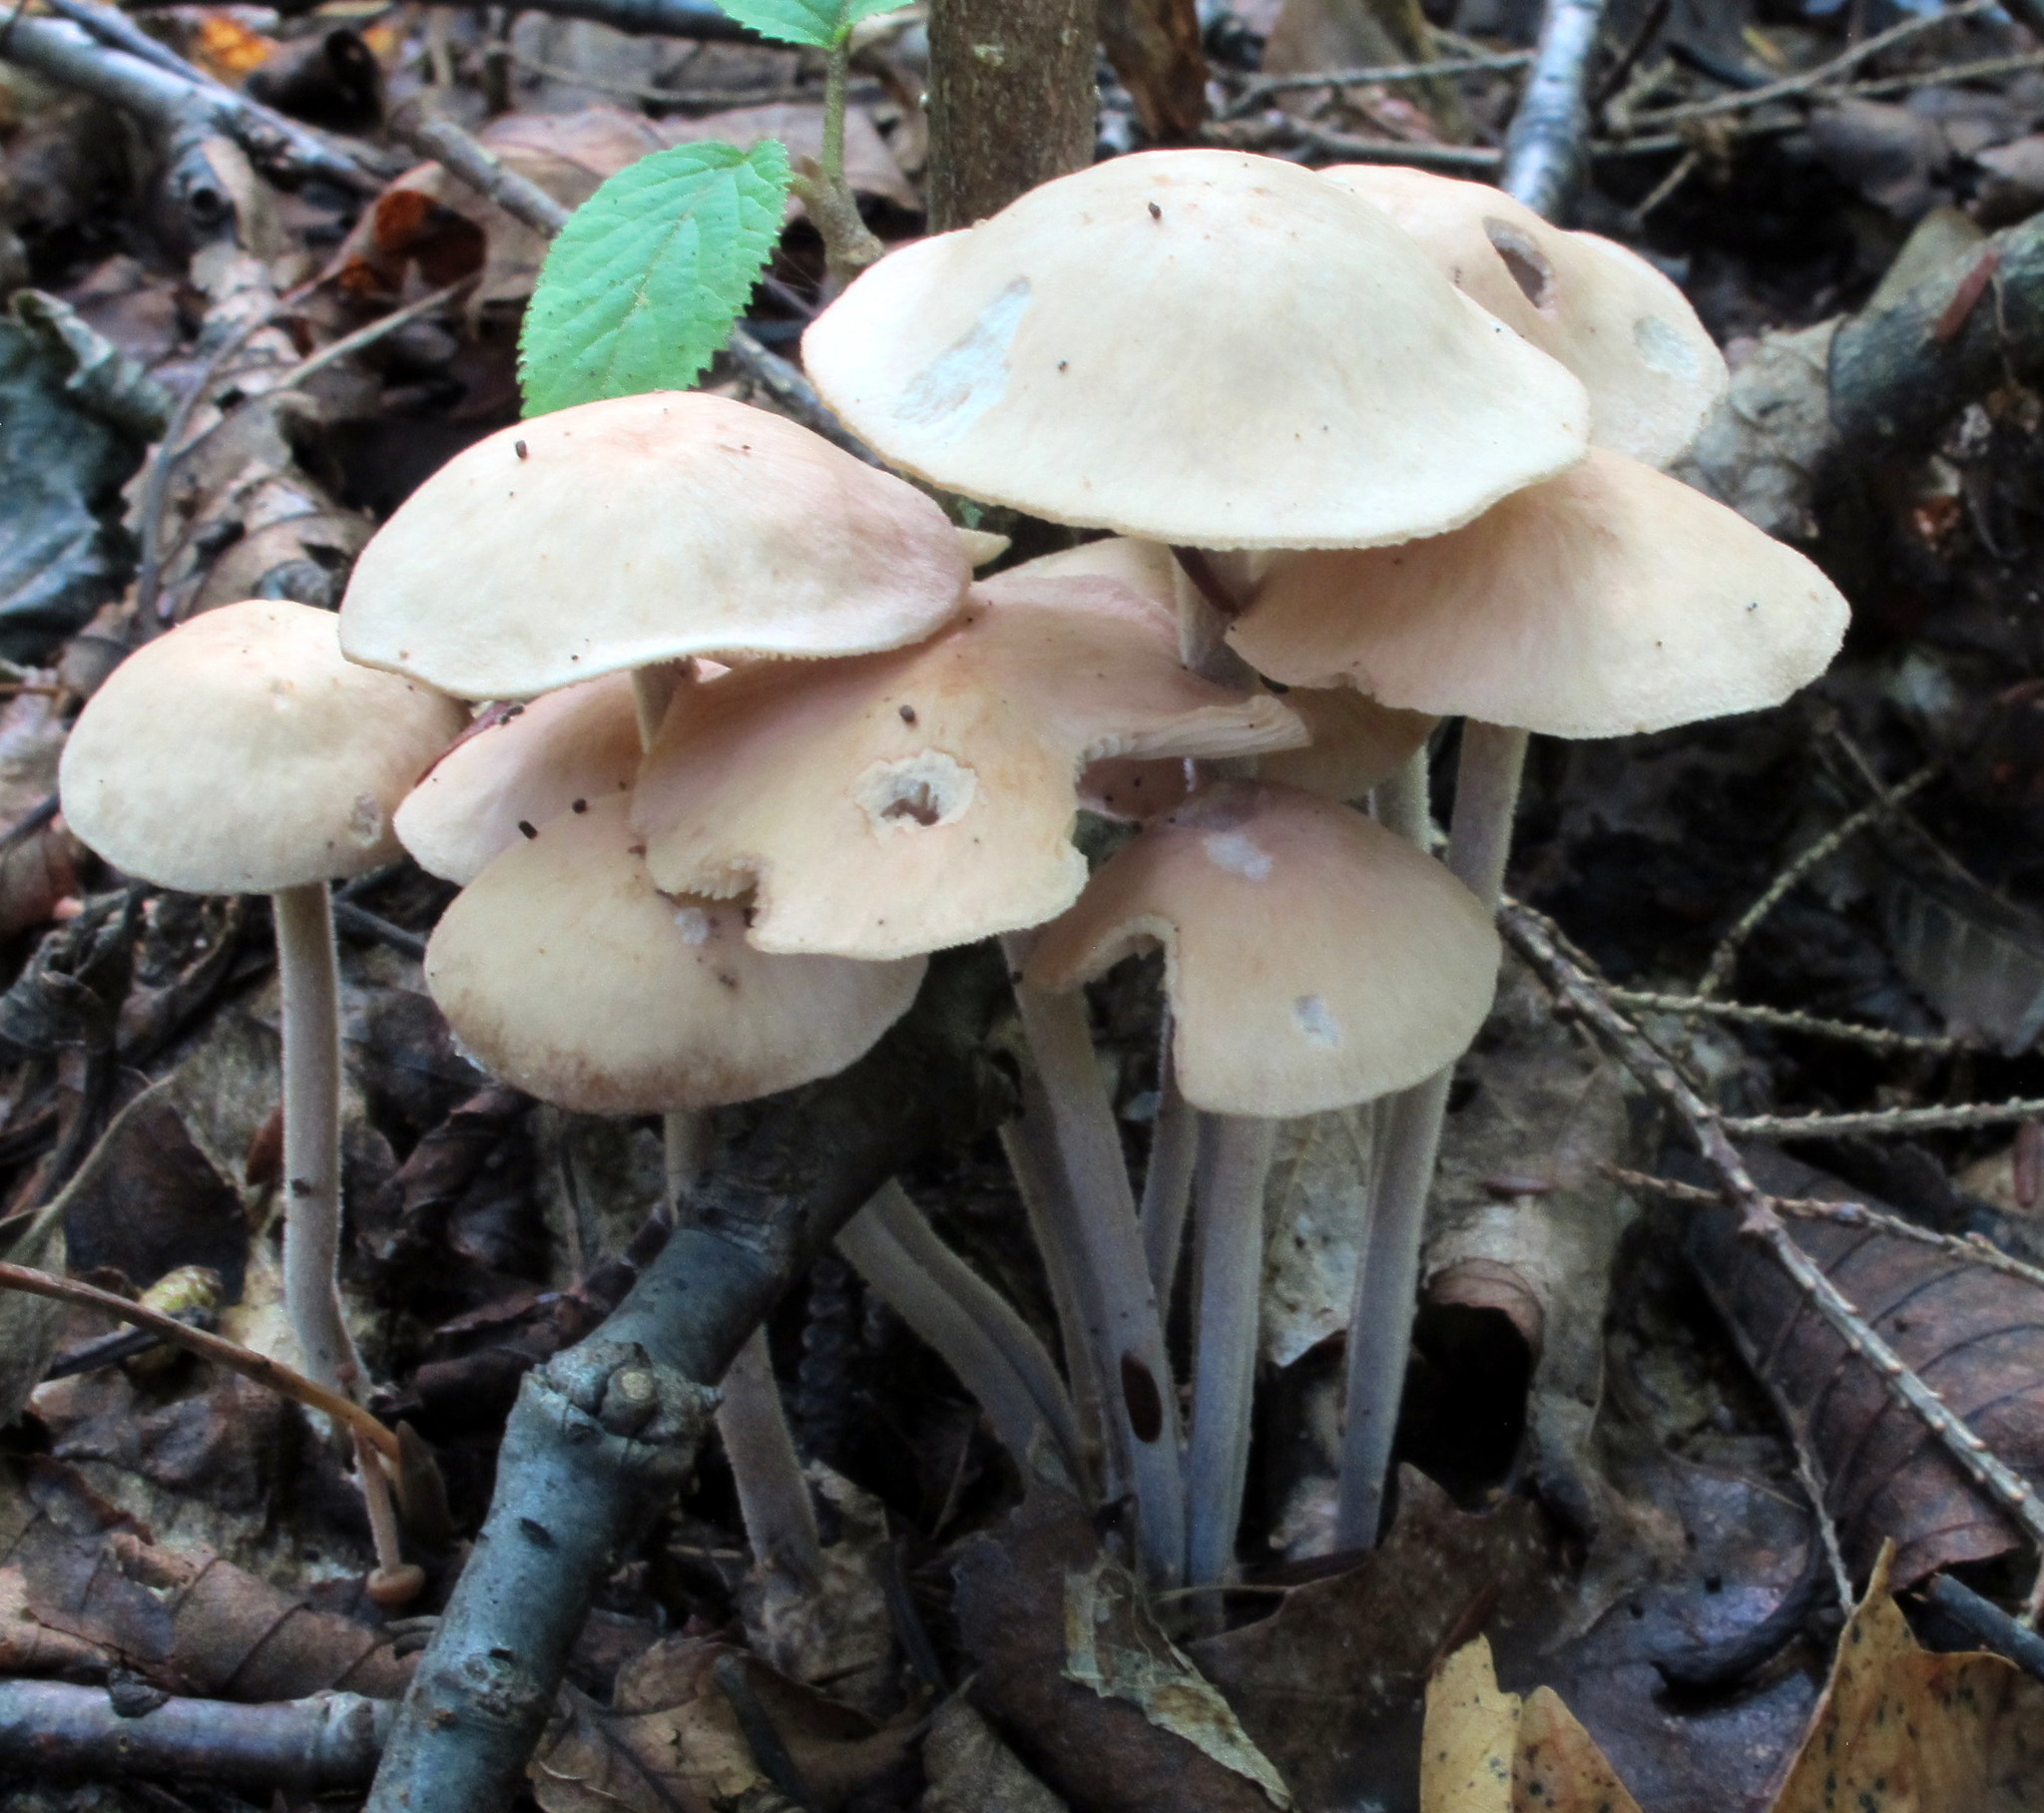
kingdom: Fungi
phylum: Basidiomycota
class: Agaricomycetes
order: Agaricales
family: Omphalotaceae
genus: Collybiopsis
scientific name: Collybiopsis confluens
